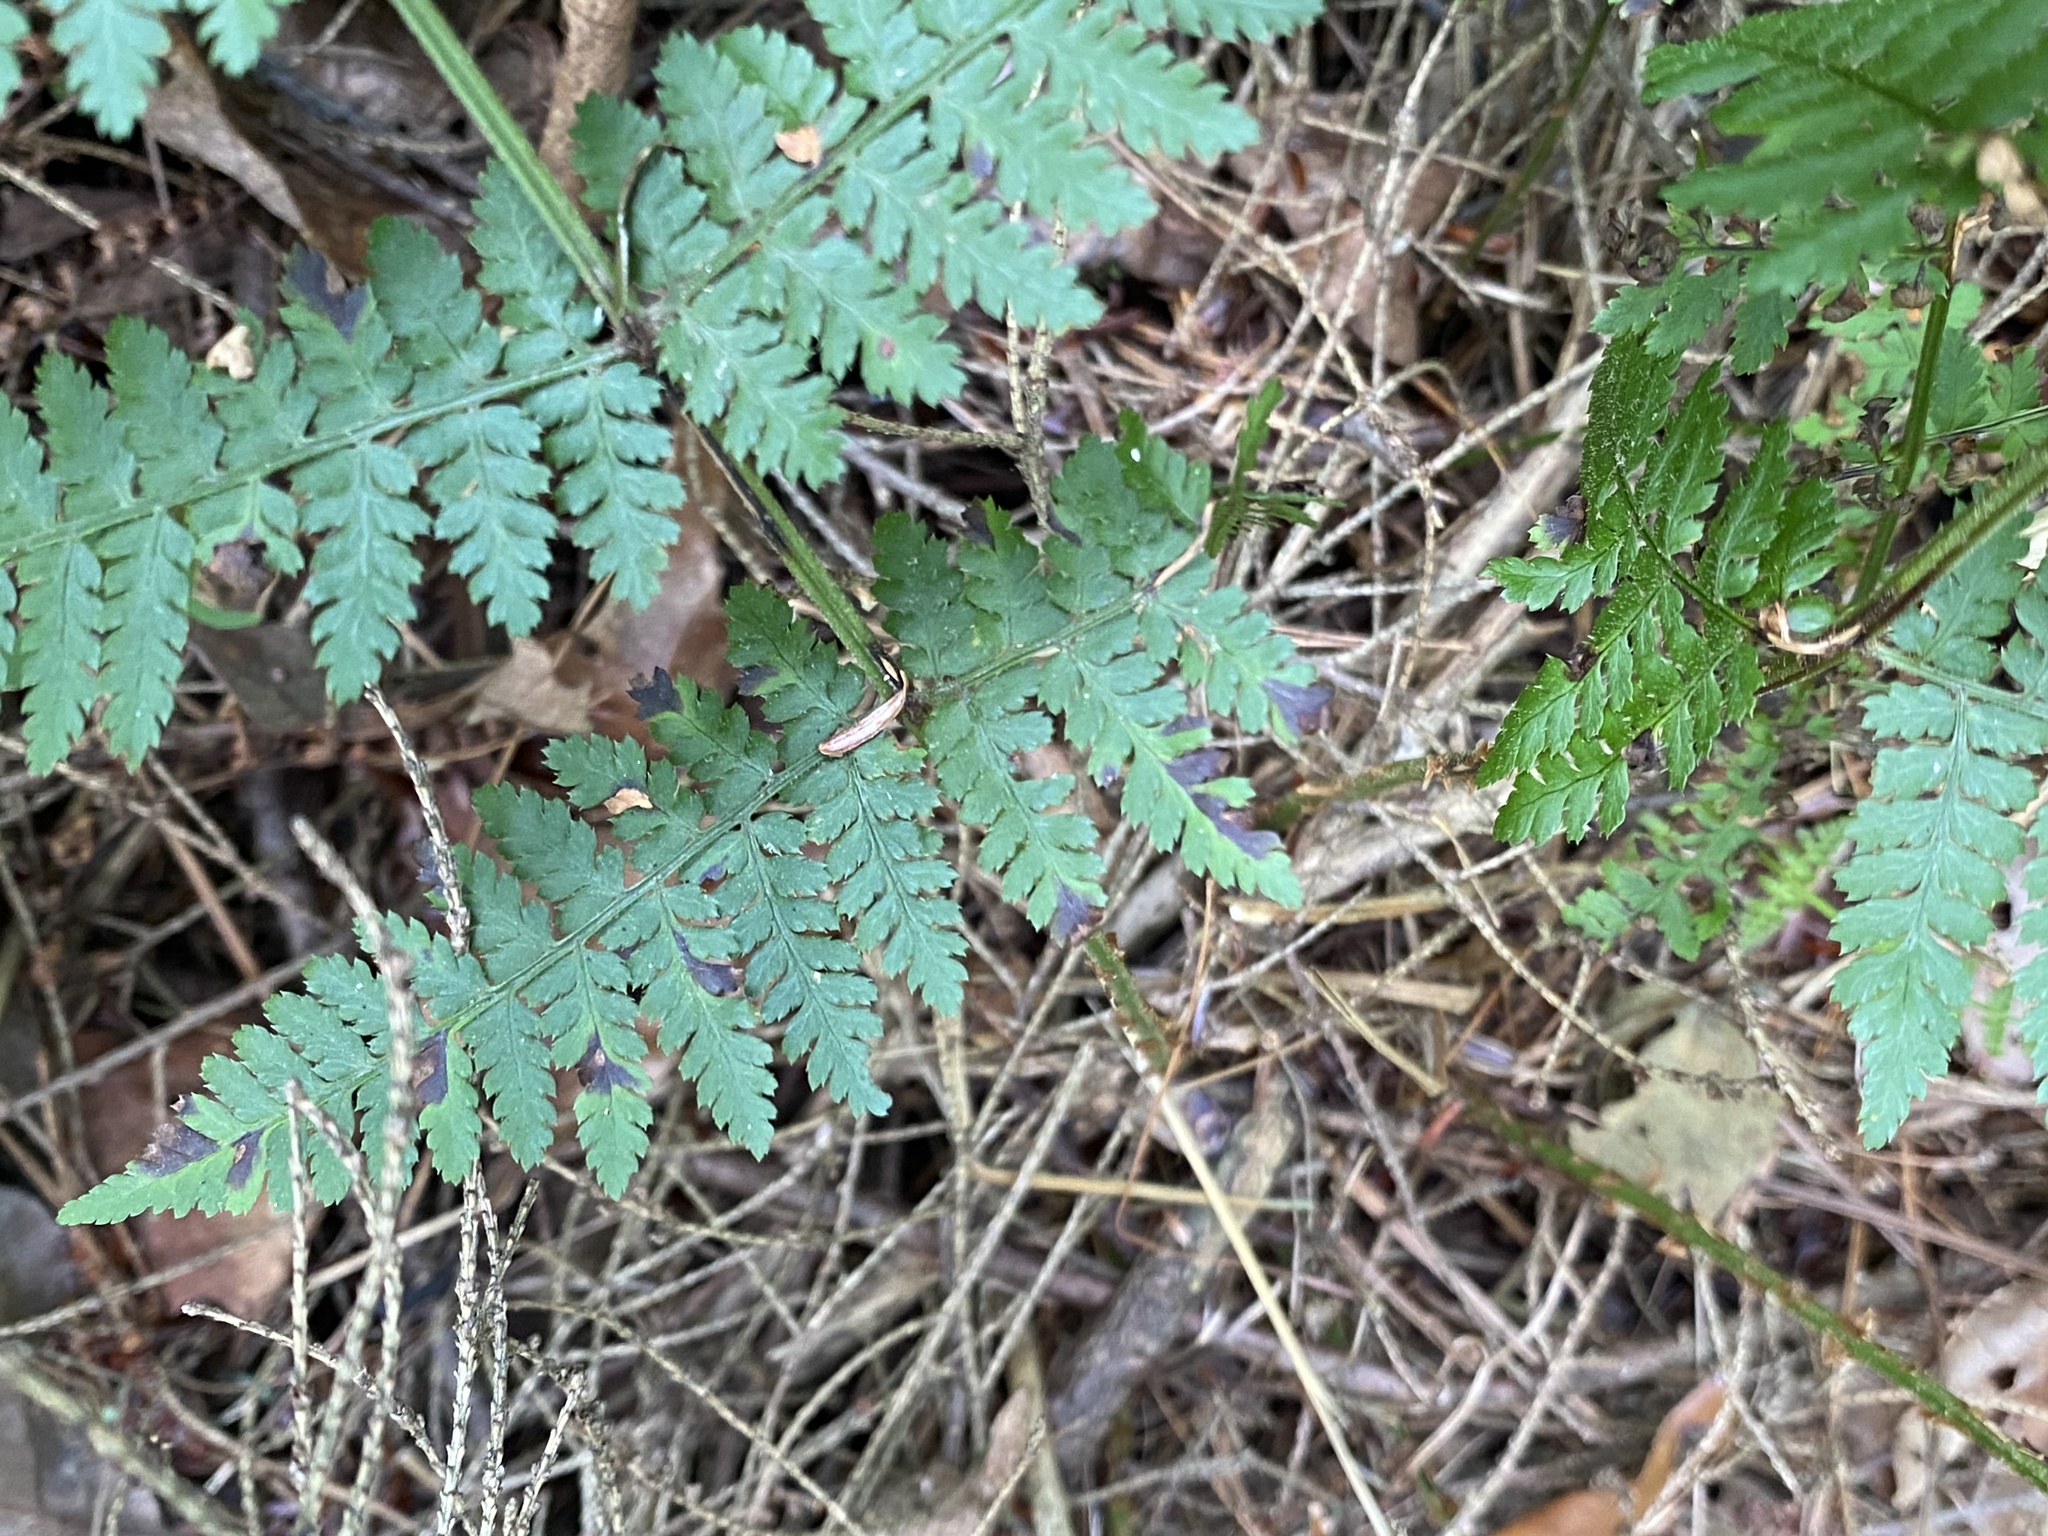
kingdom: Plantae
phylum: Tracheophyta
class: Polypodiopsida
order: Polypodiales
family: Dryopteridaceae
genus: Dryopteris
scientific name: Dryopteris intermedia
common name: Evergreen wood fern
